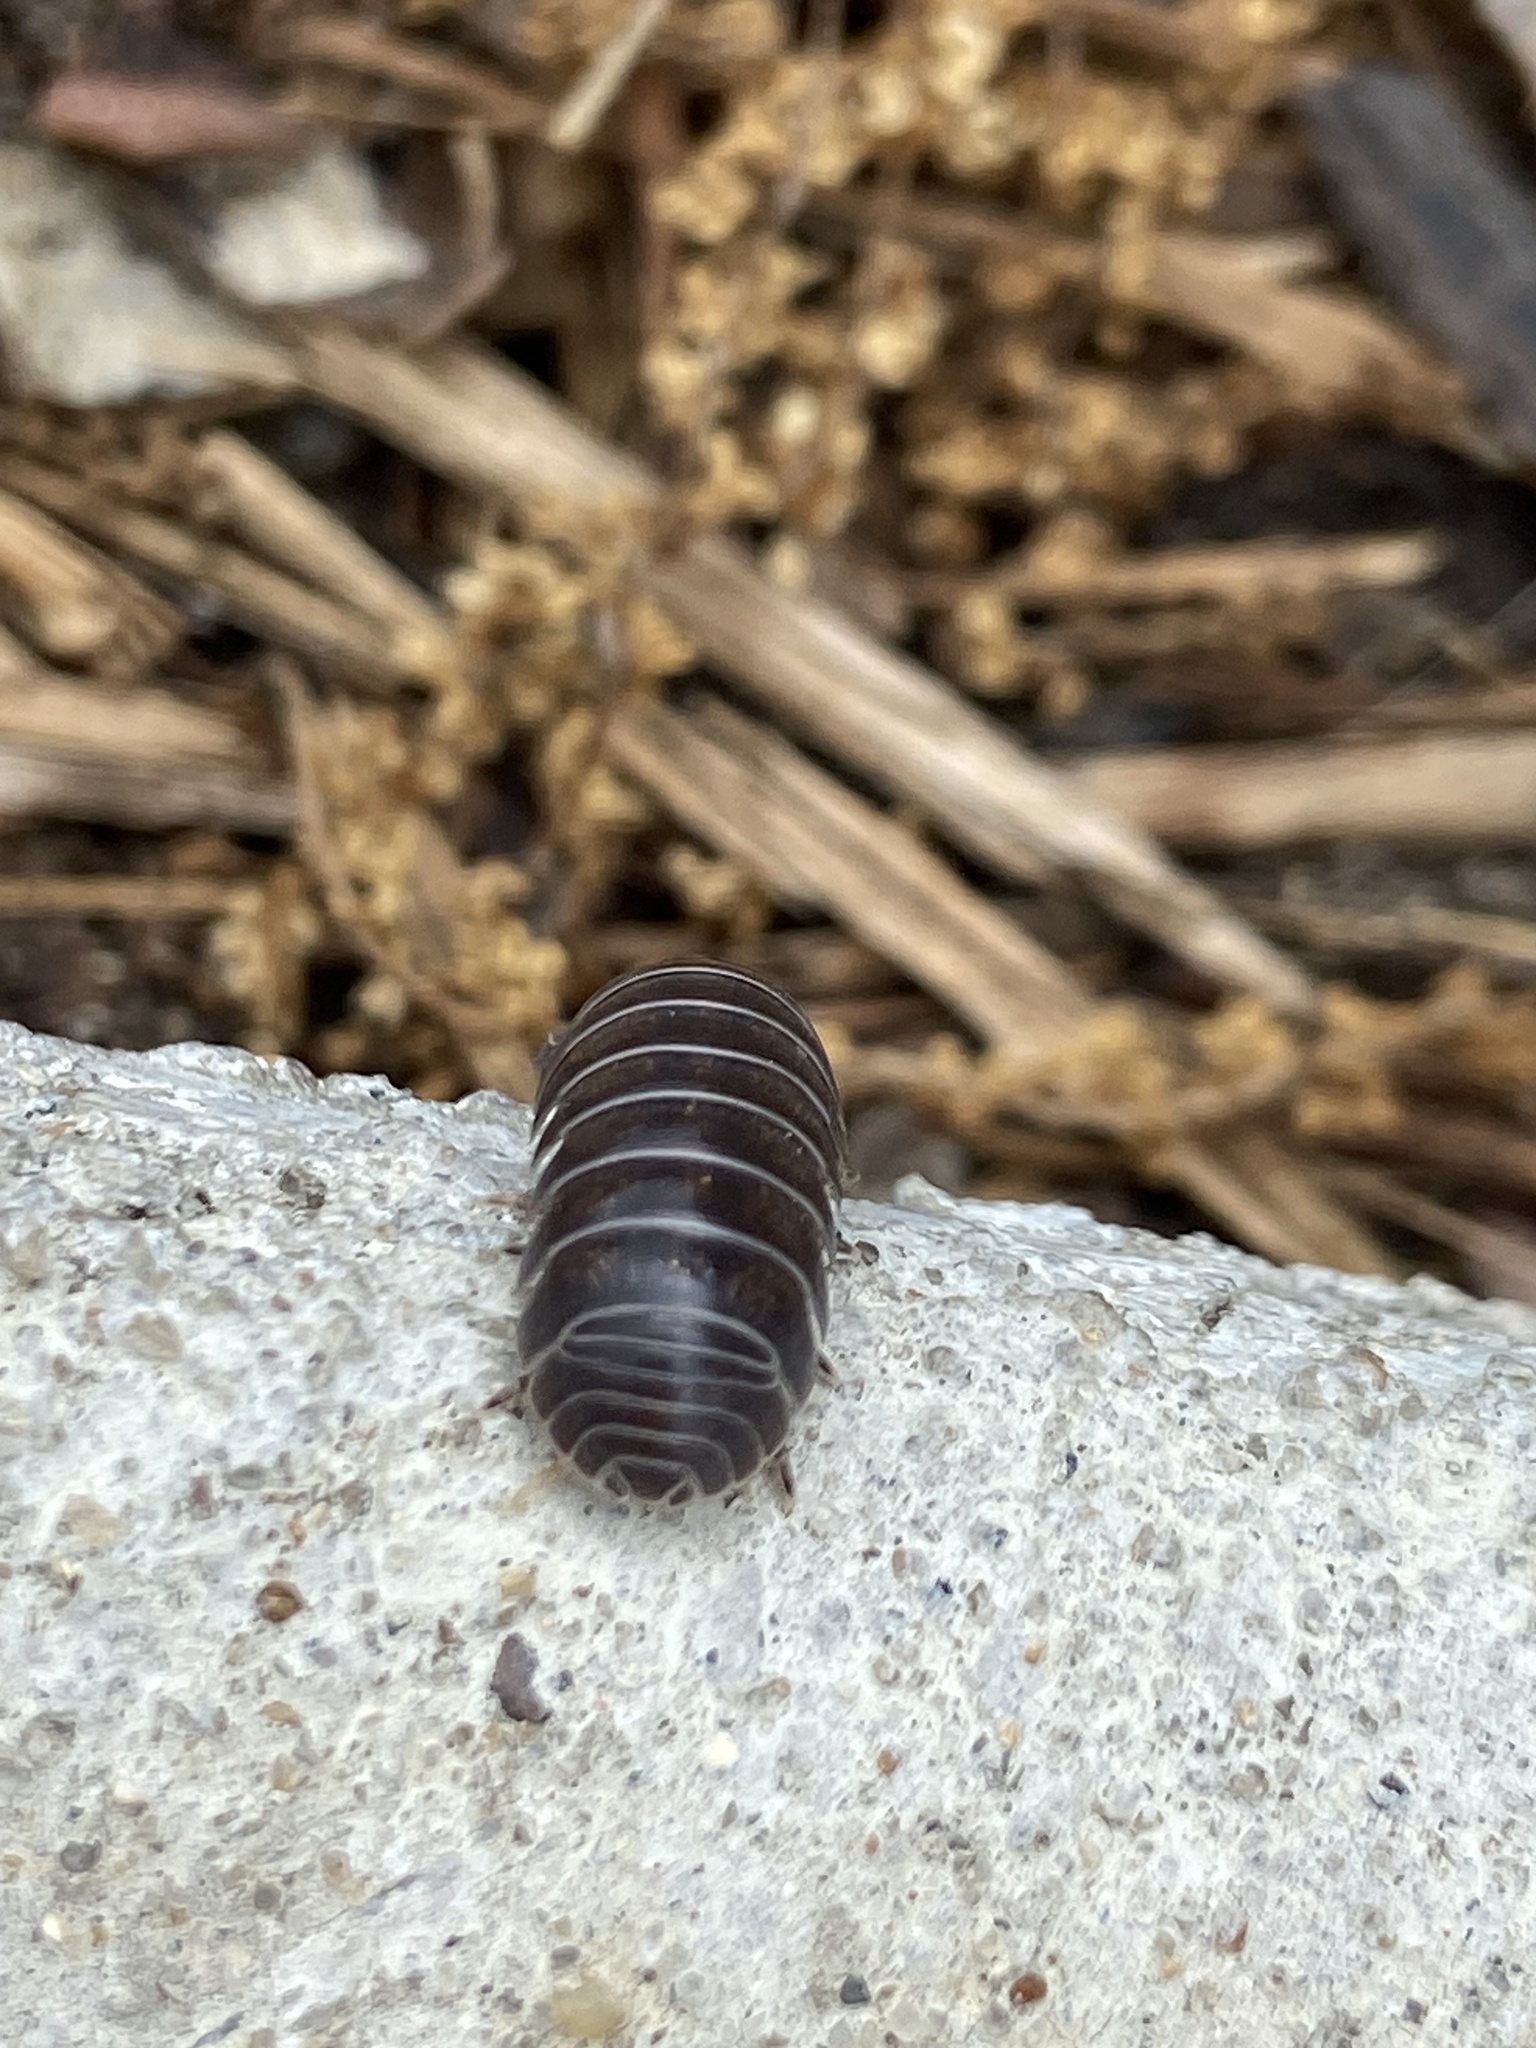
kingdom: Animalia
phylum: Arthropoda
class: Malacostraca
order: Isopoda
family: Armadillidiidae
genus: Armadillidium
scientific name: Armadillidium vulgare
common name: Common pill woodlouse
